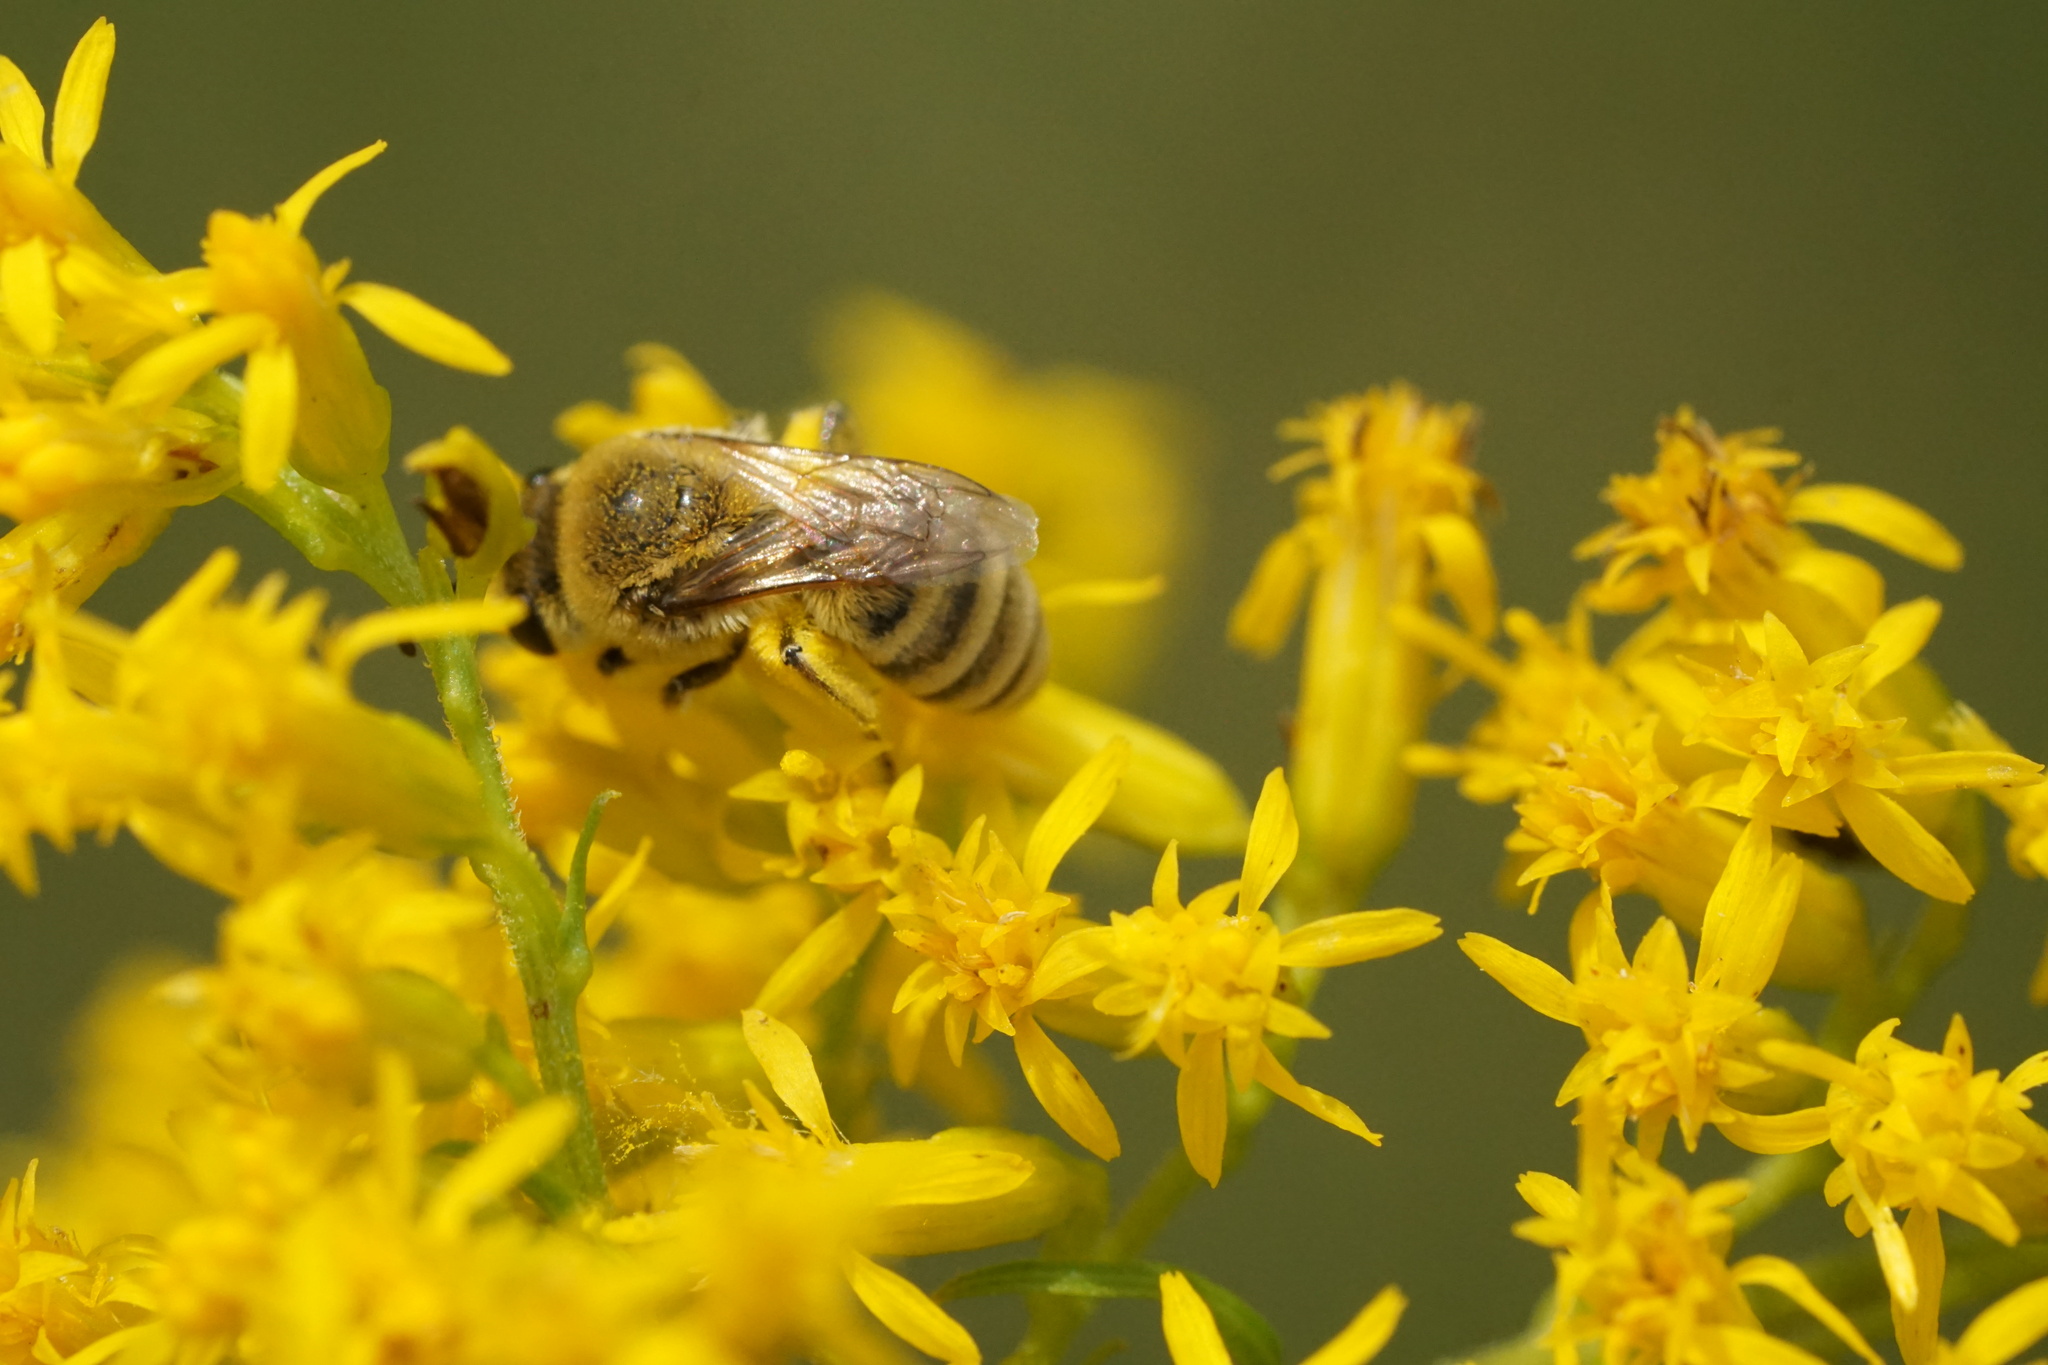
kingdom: Animalia
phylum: Arthropoda
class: Insecta
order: Hymenoptera
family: Colletidae
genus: Colletes
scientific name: Colletes solidaginis
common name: Goldenrod cellophane bee
